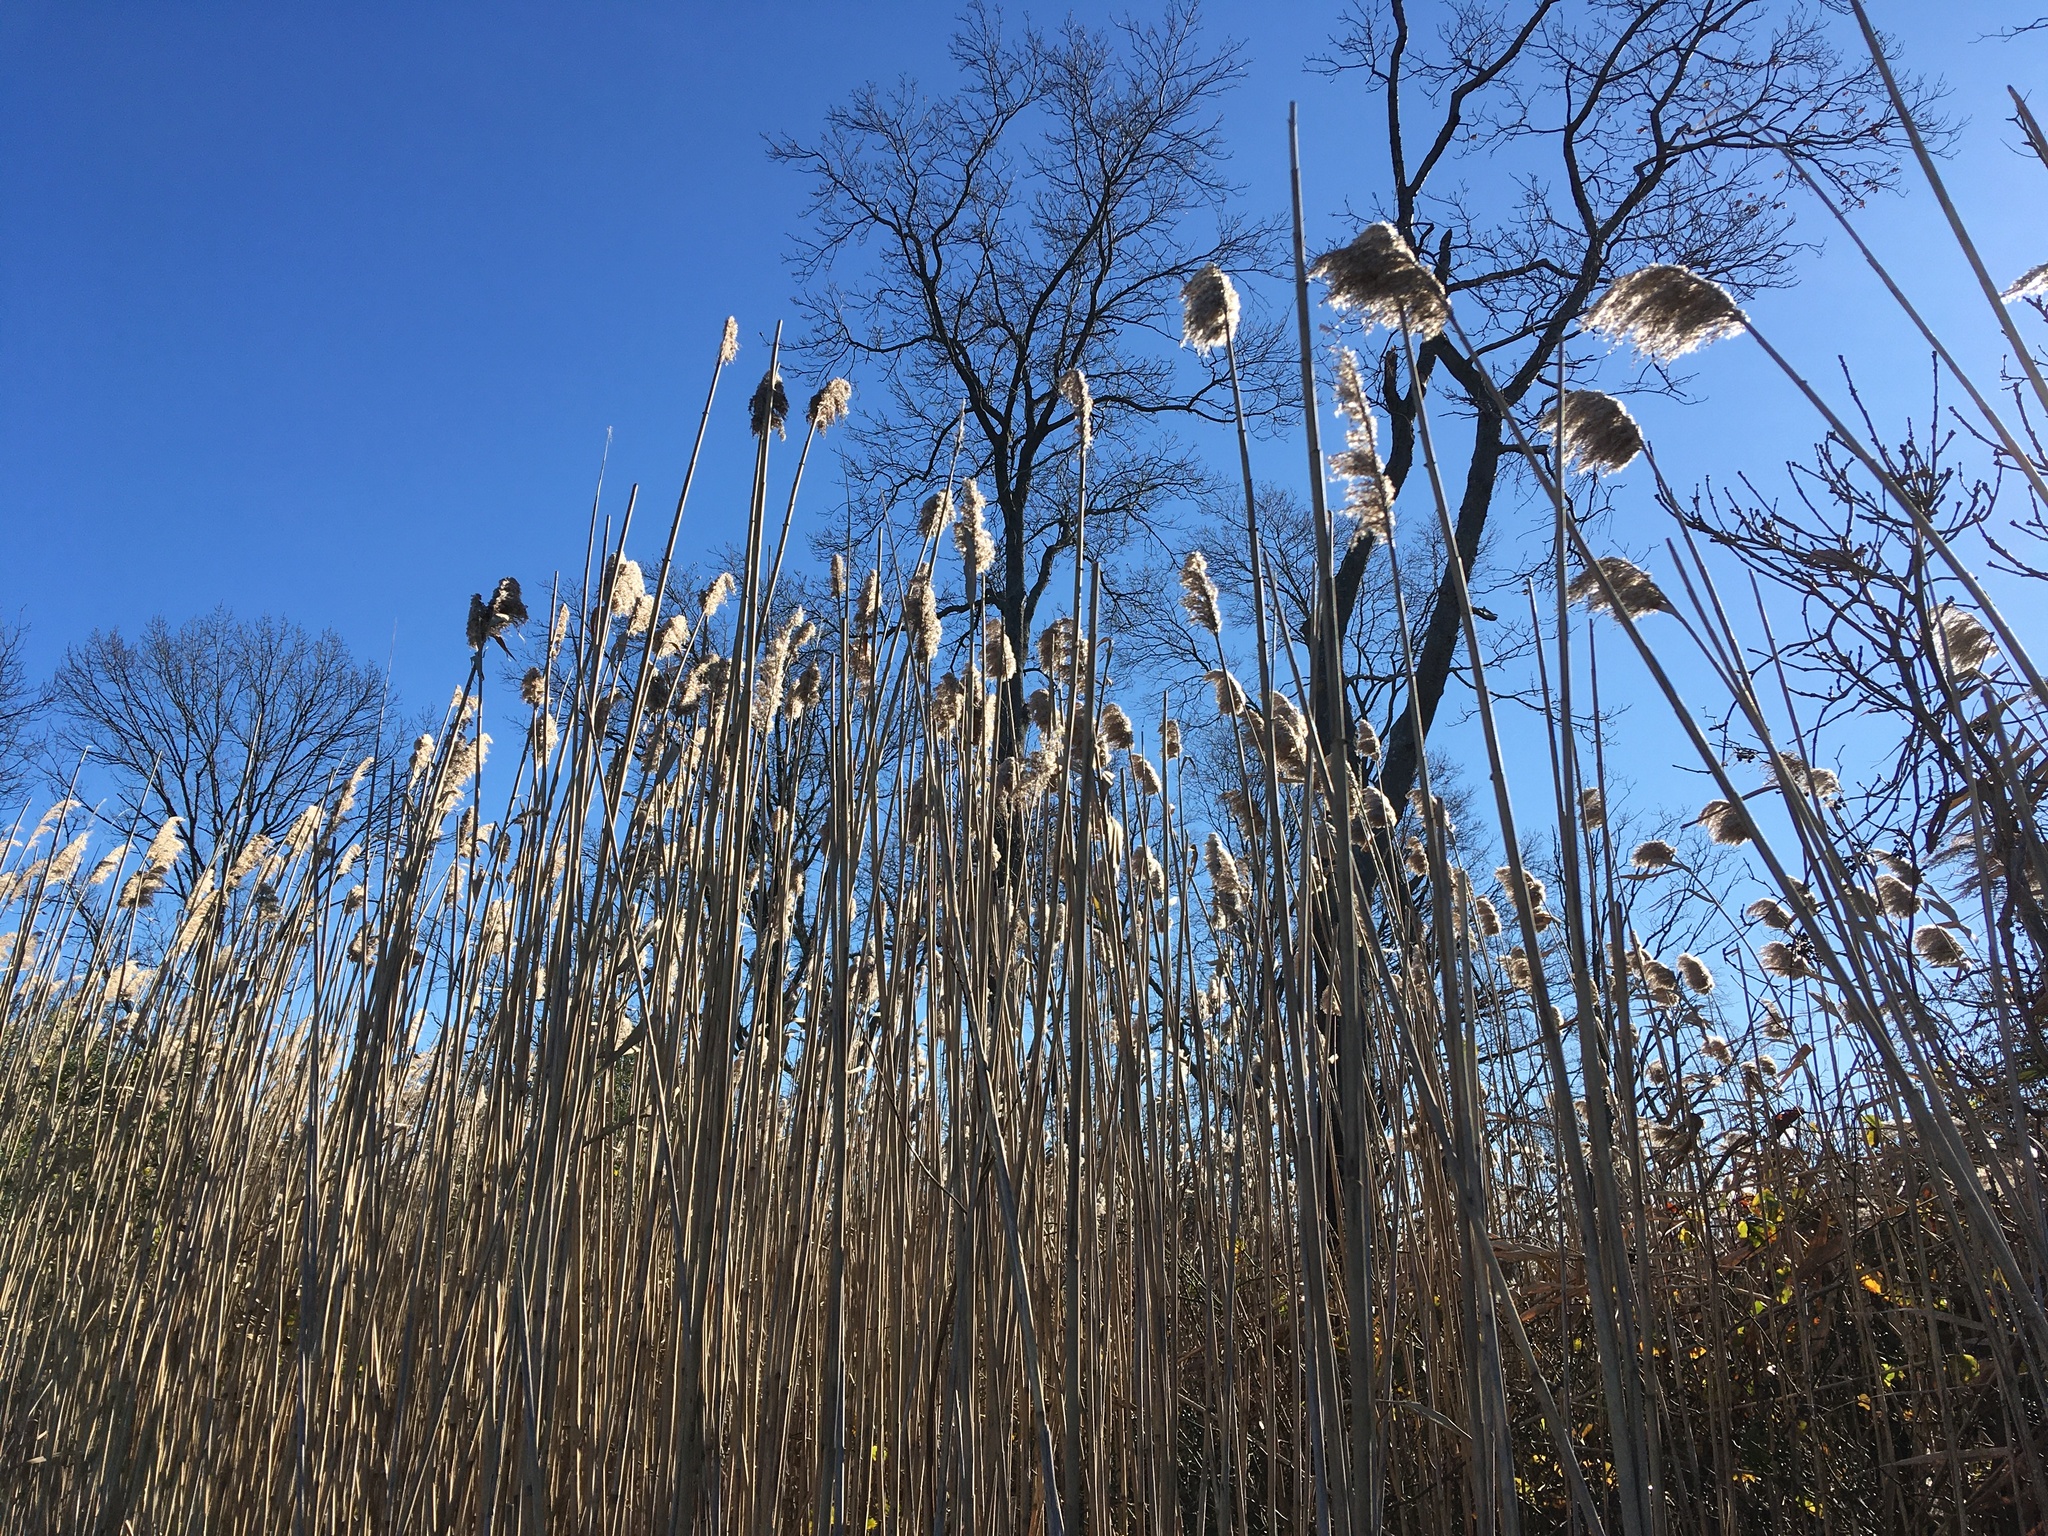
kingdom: Plantae
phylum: Tracheophyta
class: Liliopsida
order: Poales
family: Poaceae
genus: Phragmites
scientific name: Phragmites australis
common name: Common reed
